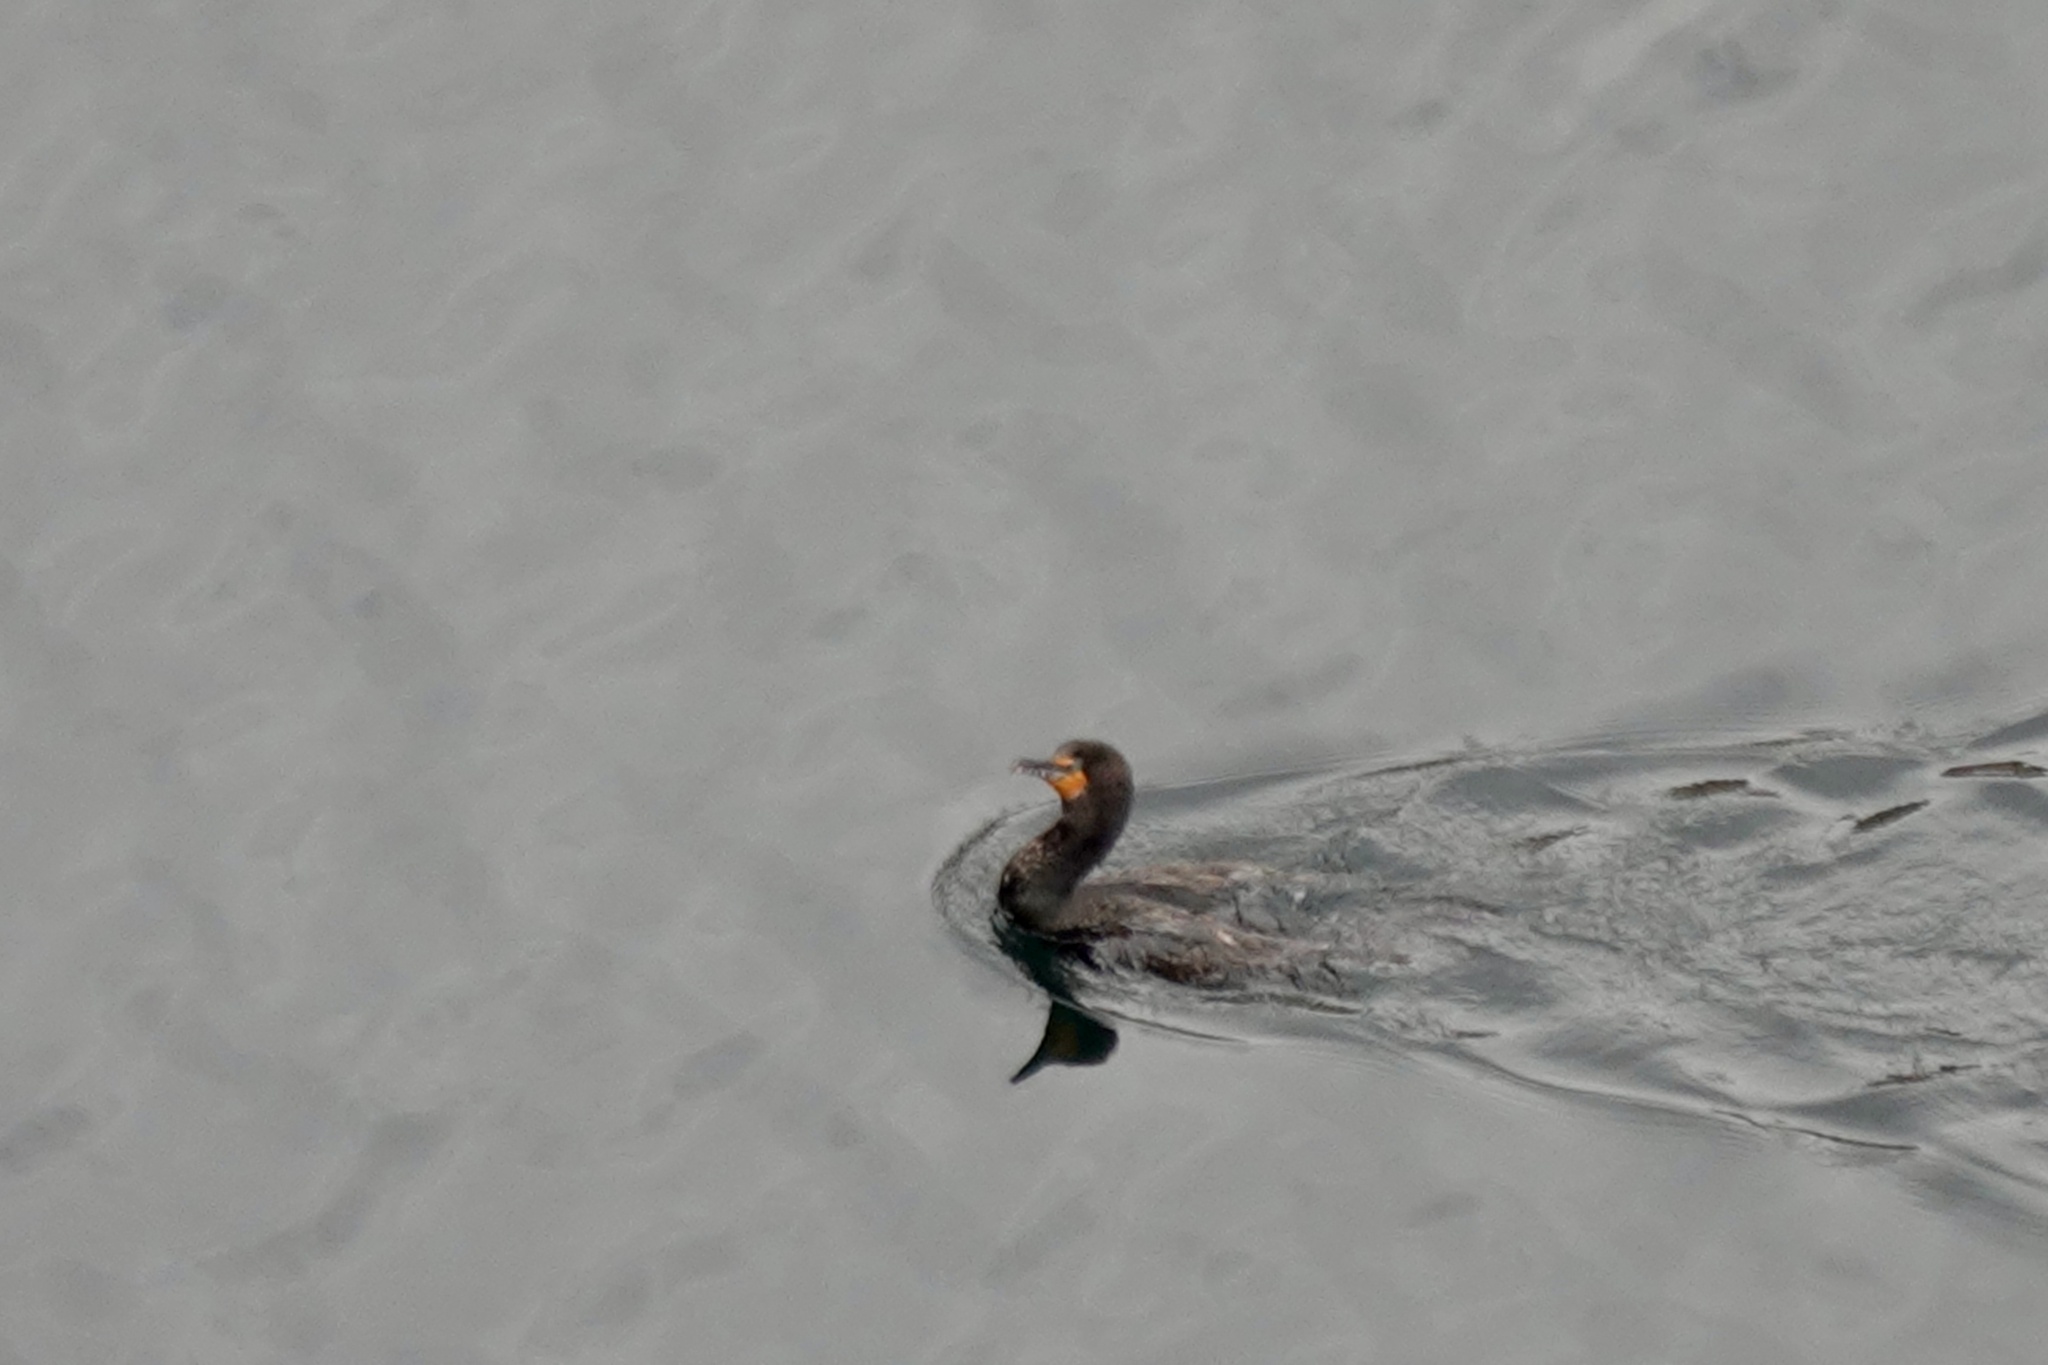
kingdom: Animalia
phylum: Chordata
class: Aves
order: Suliformes
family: Phalacrocoracidae
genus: Phalacrocorax
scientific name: Phalacrocorax auritus
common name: Double-crested cormorant
